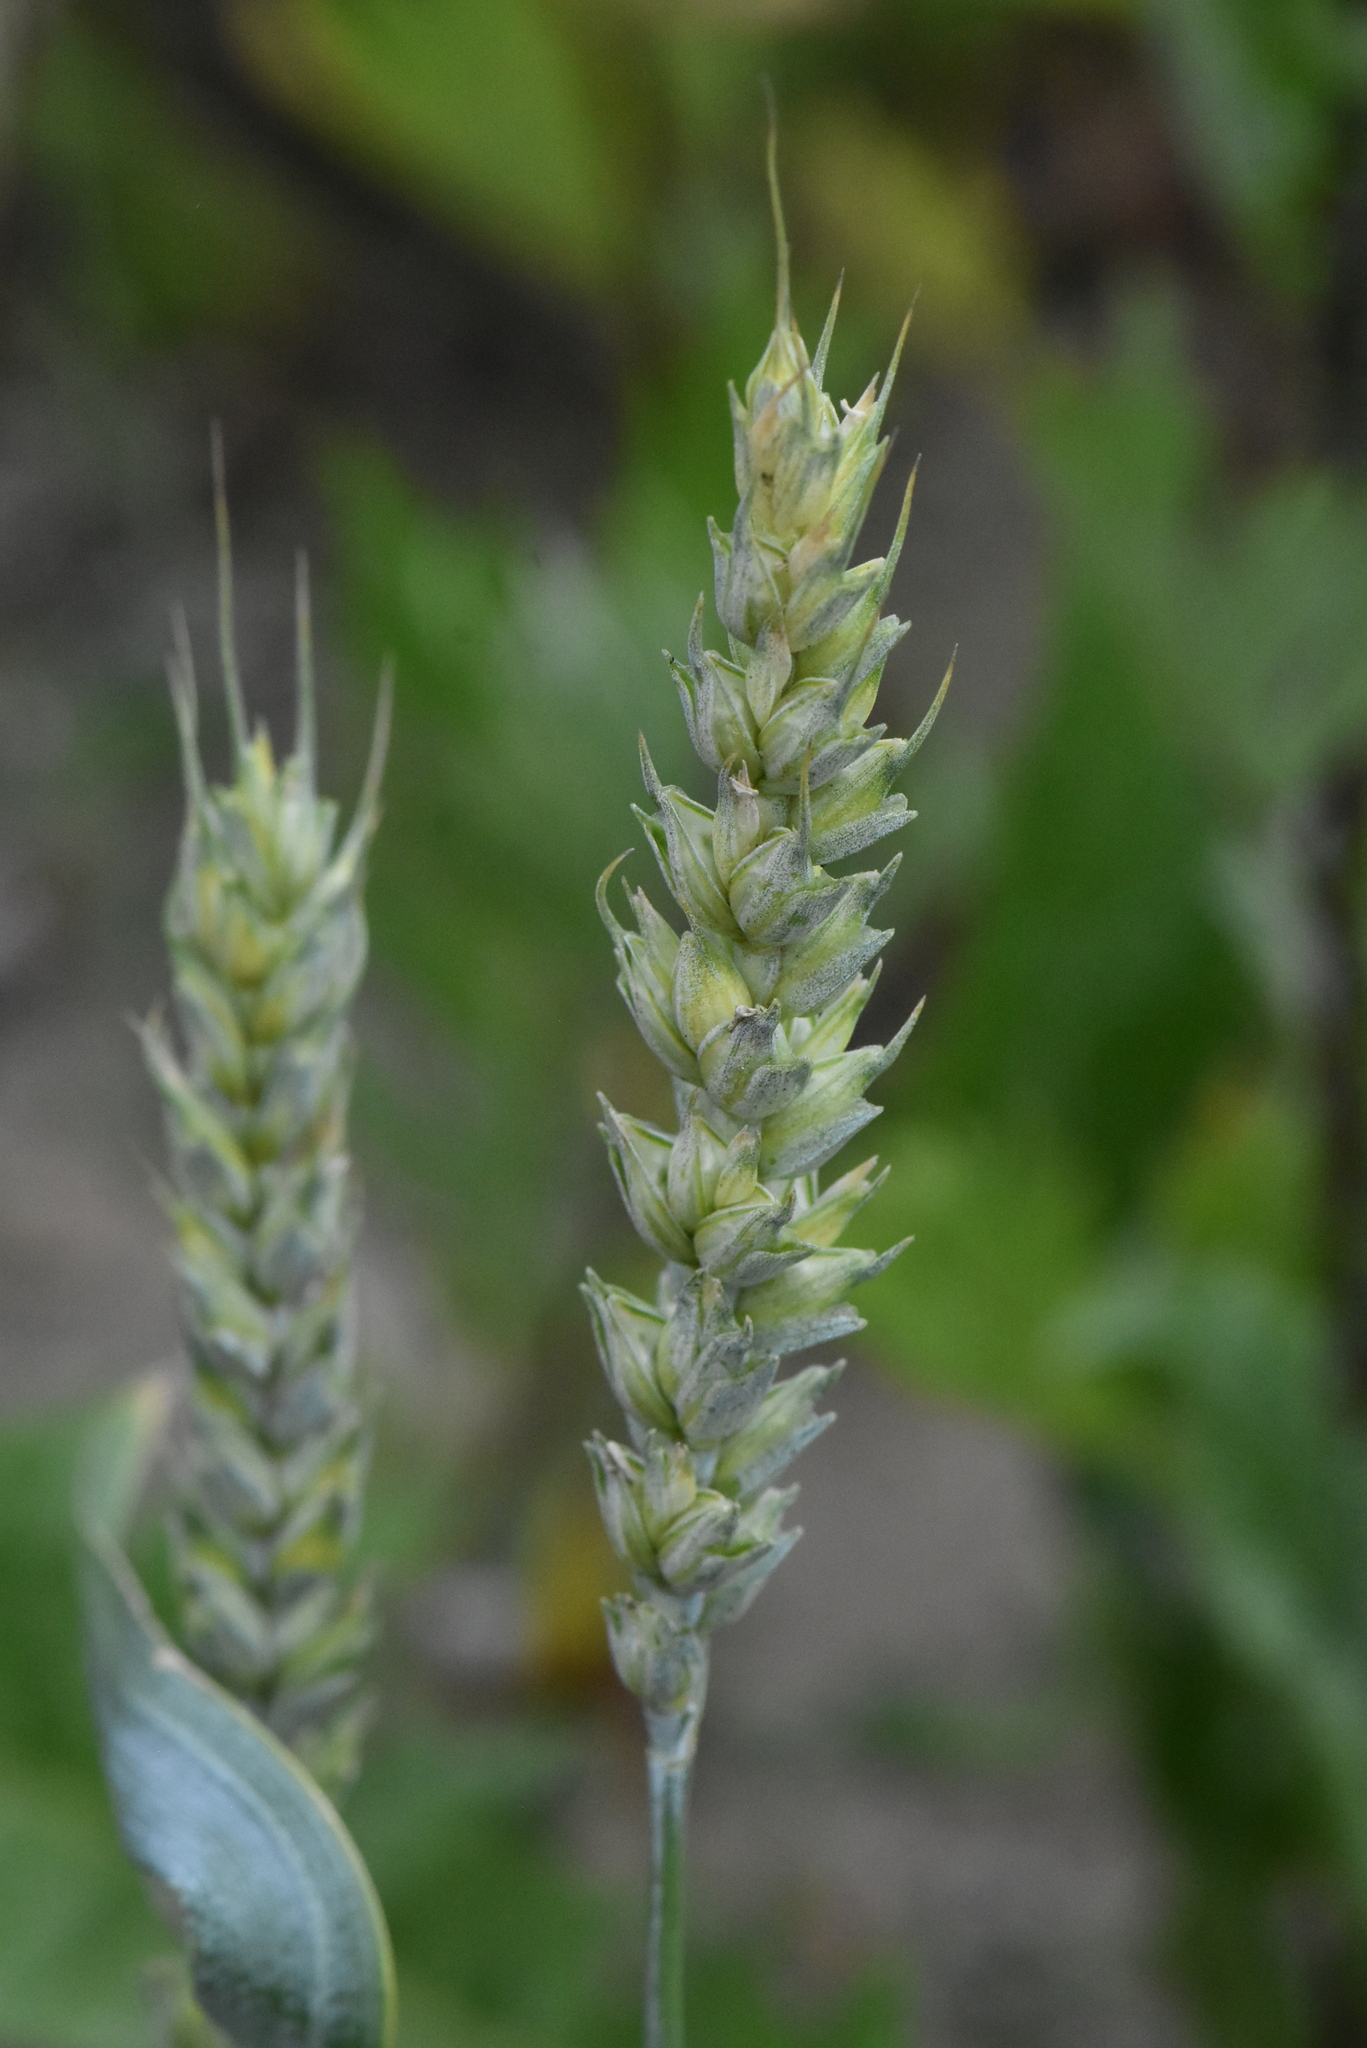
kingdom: Plantae
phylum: Tracheophyta
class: Liliopsida
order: Poales
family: Poaceae
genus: Triticum
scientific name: Triticum aestivum
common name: Common wheat
